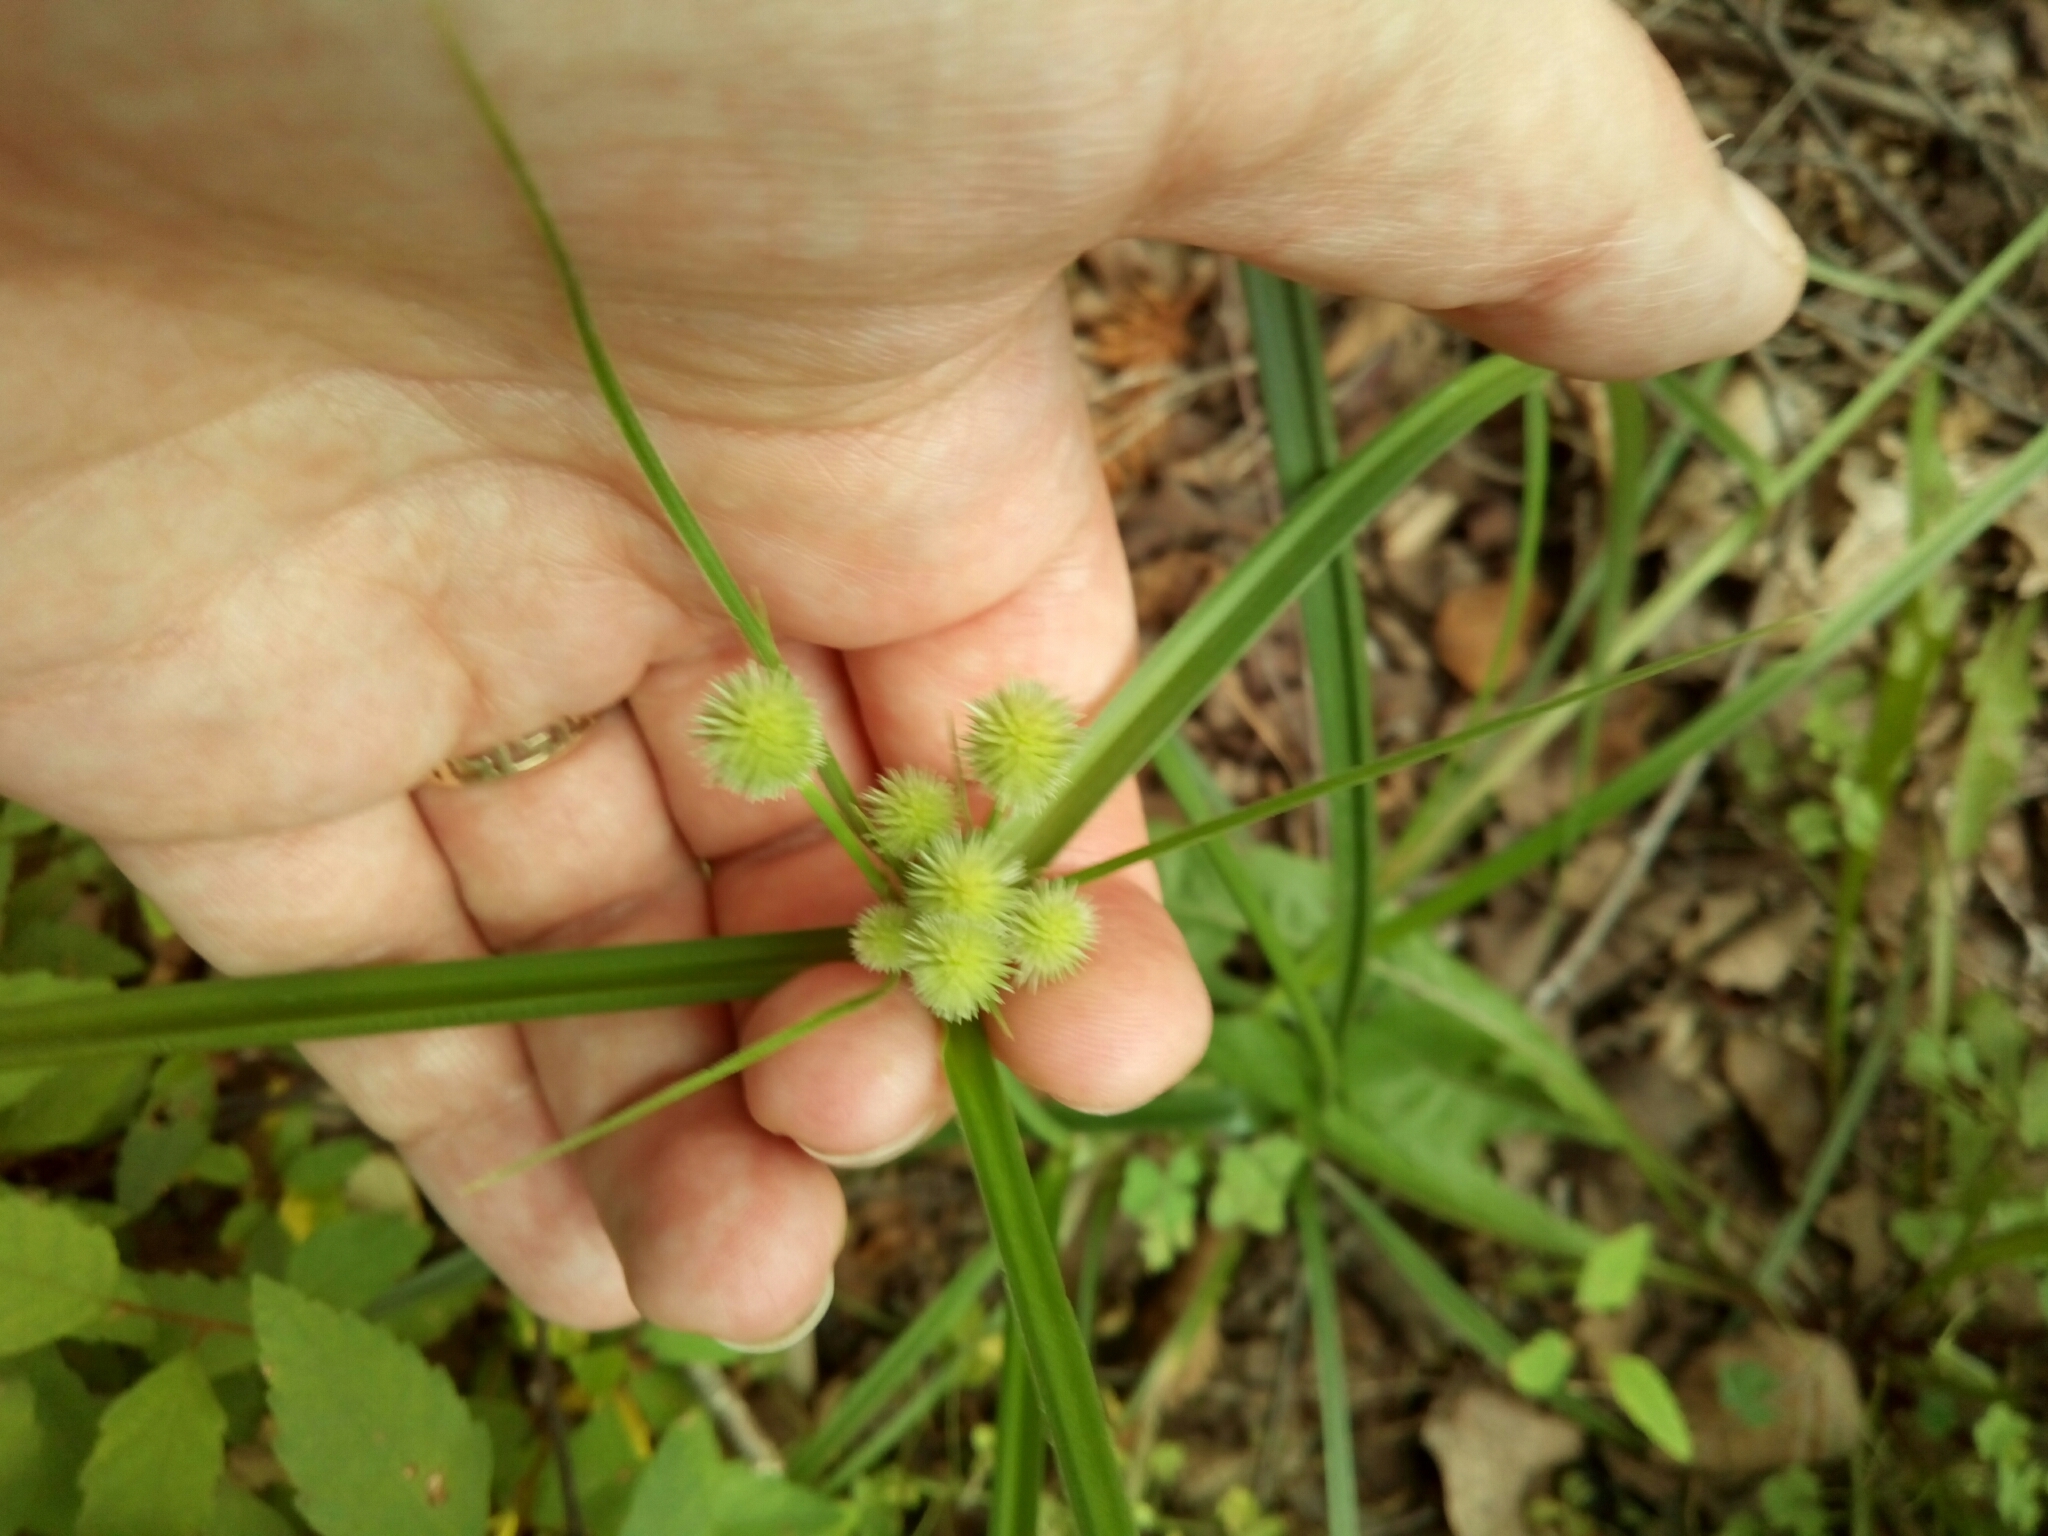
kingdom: Plantae
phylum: Tracheophyta
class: Liliopsida
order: Poales
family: Cyperaceae
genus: Cyperus
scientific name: Cyperus echinatus
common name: Teasel sedge
